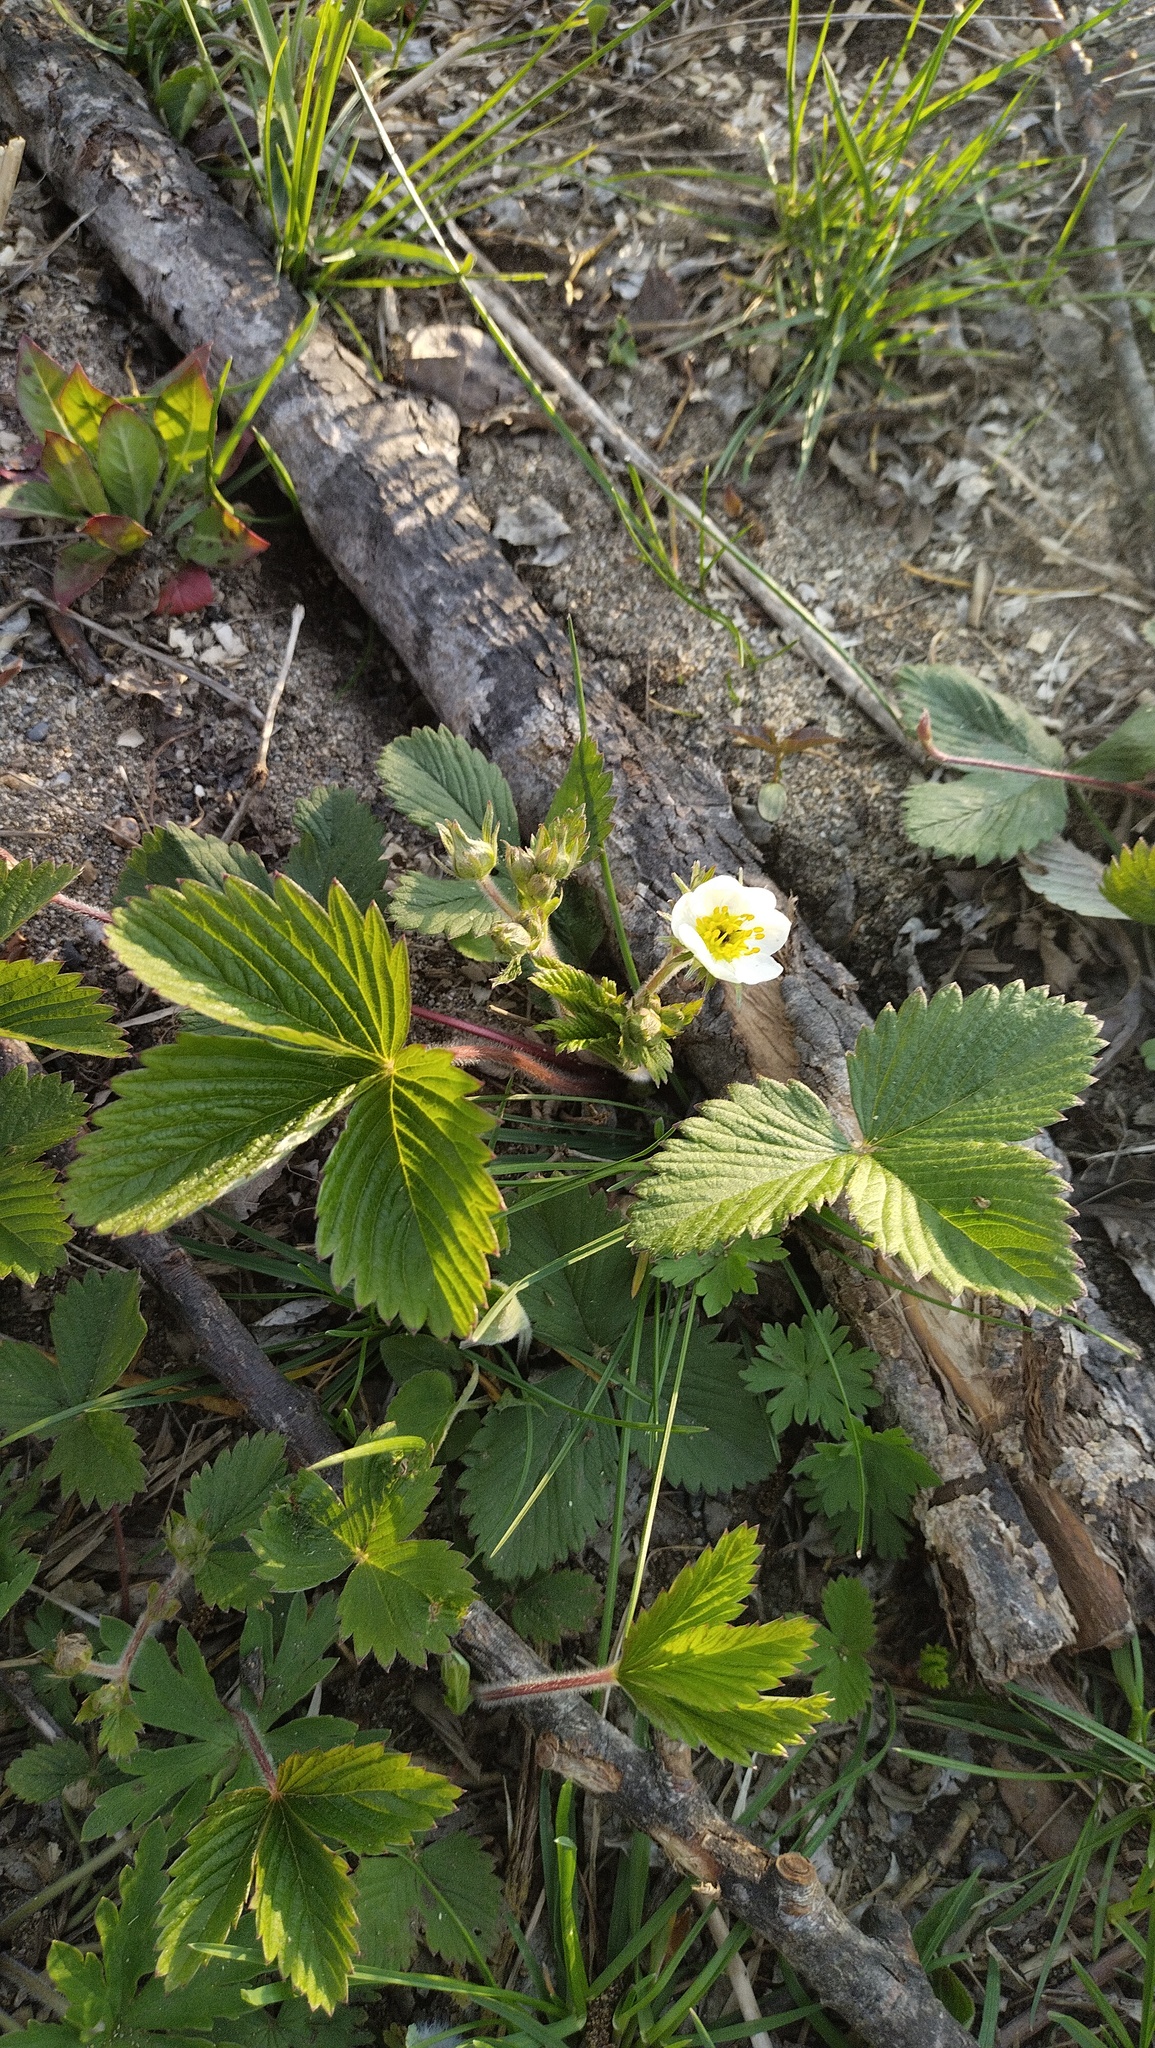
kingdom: Plantae
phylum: Tracheophyta
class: Magnoliopsida
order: Rosales
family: Rosaceae
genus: Fragaria
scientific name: Fragaria orientalis
